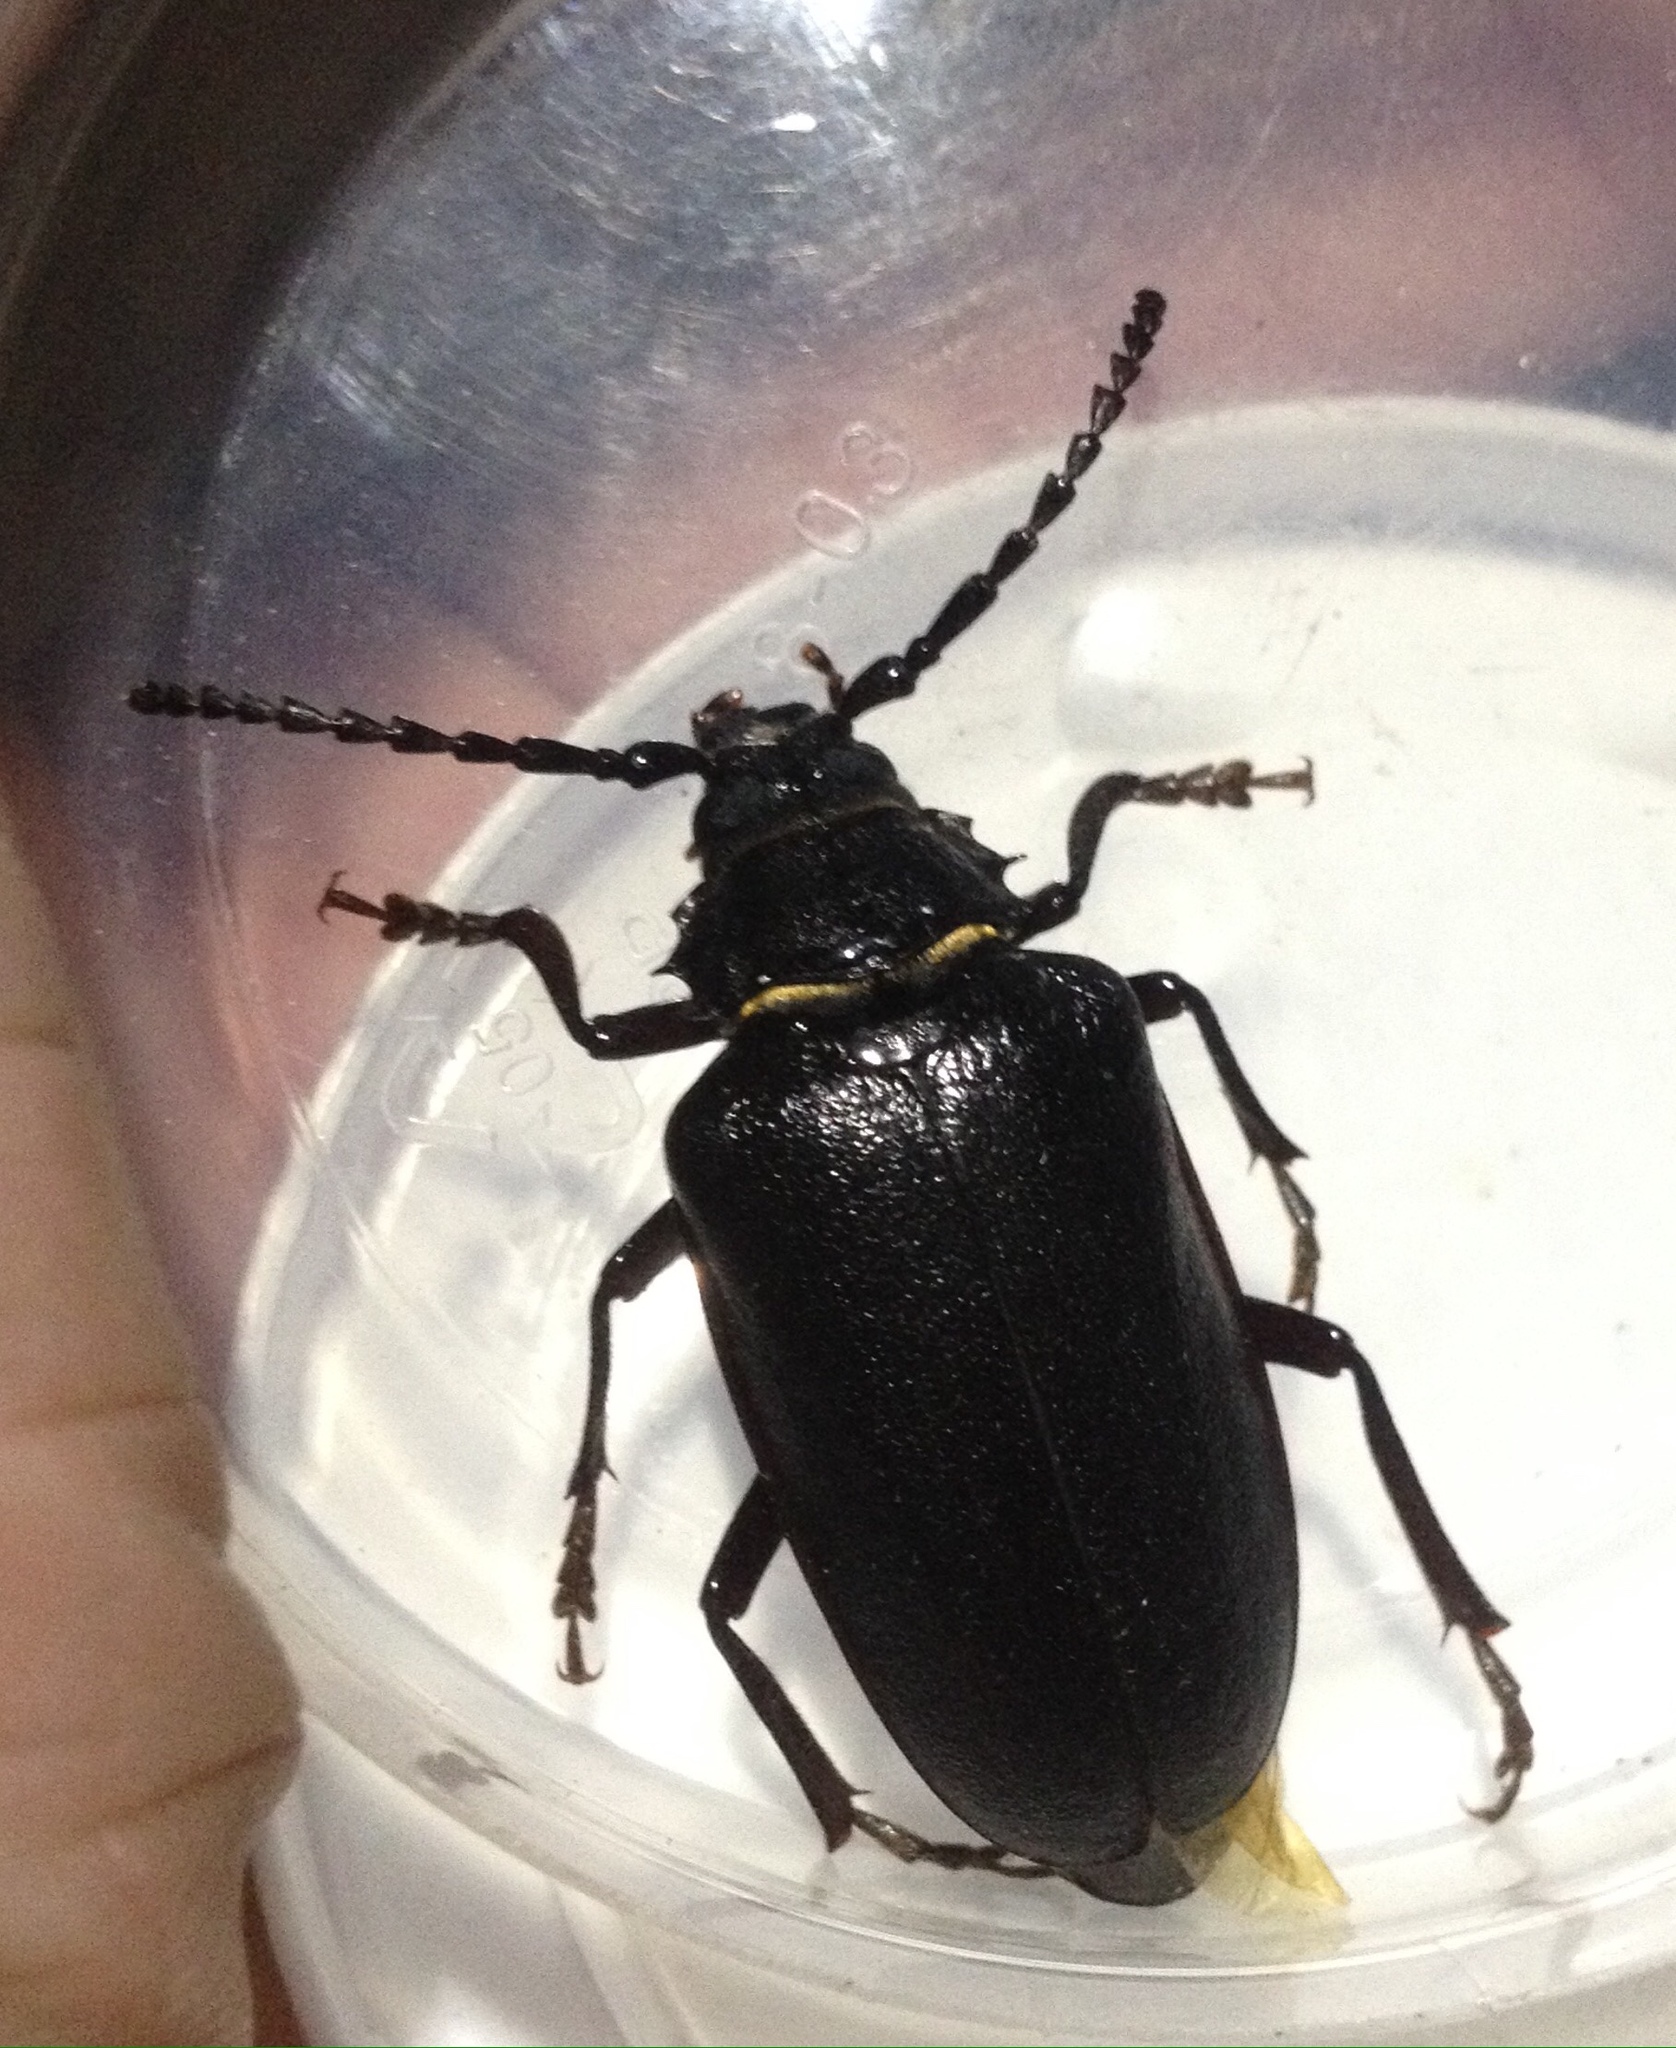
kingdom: Animalia
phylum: Arthropoda
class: Insecta
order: Coleoptera
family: Cerambycidae
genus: Prionus
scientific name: Prionus coriarius
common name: Tanner beetle
